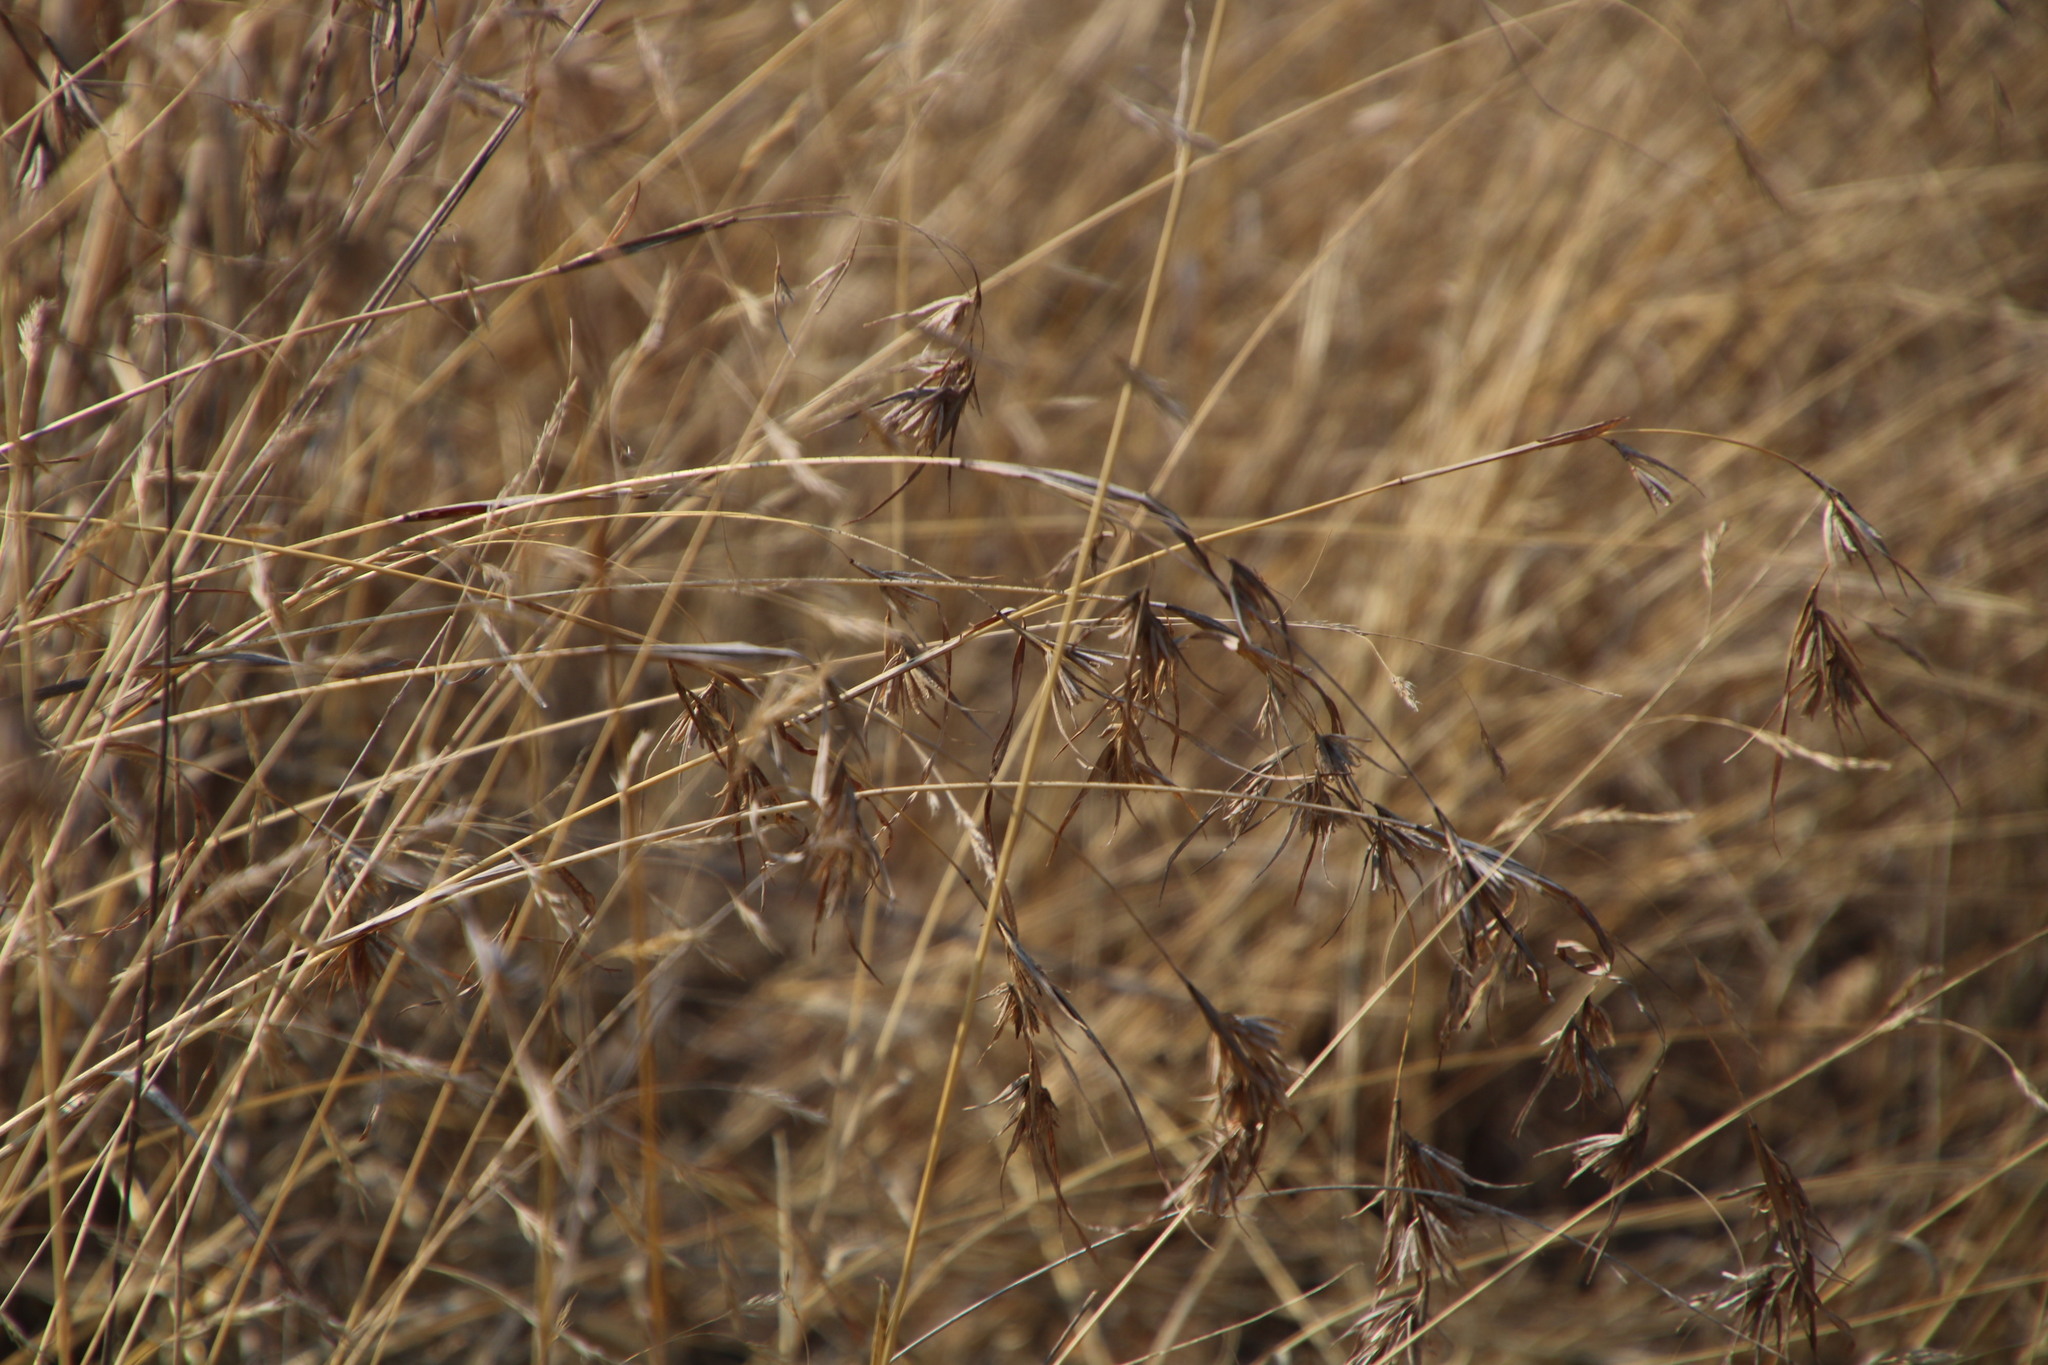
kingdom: Plantae
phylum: Tracheophyta
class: Liliopsida
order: Poales
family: Poaceae
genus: Themeda
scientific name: Themeda triandra
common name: Kangaroo grass
